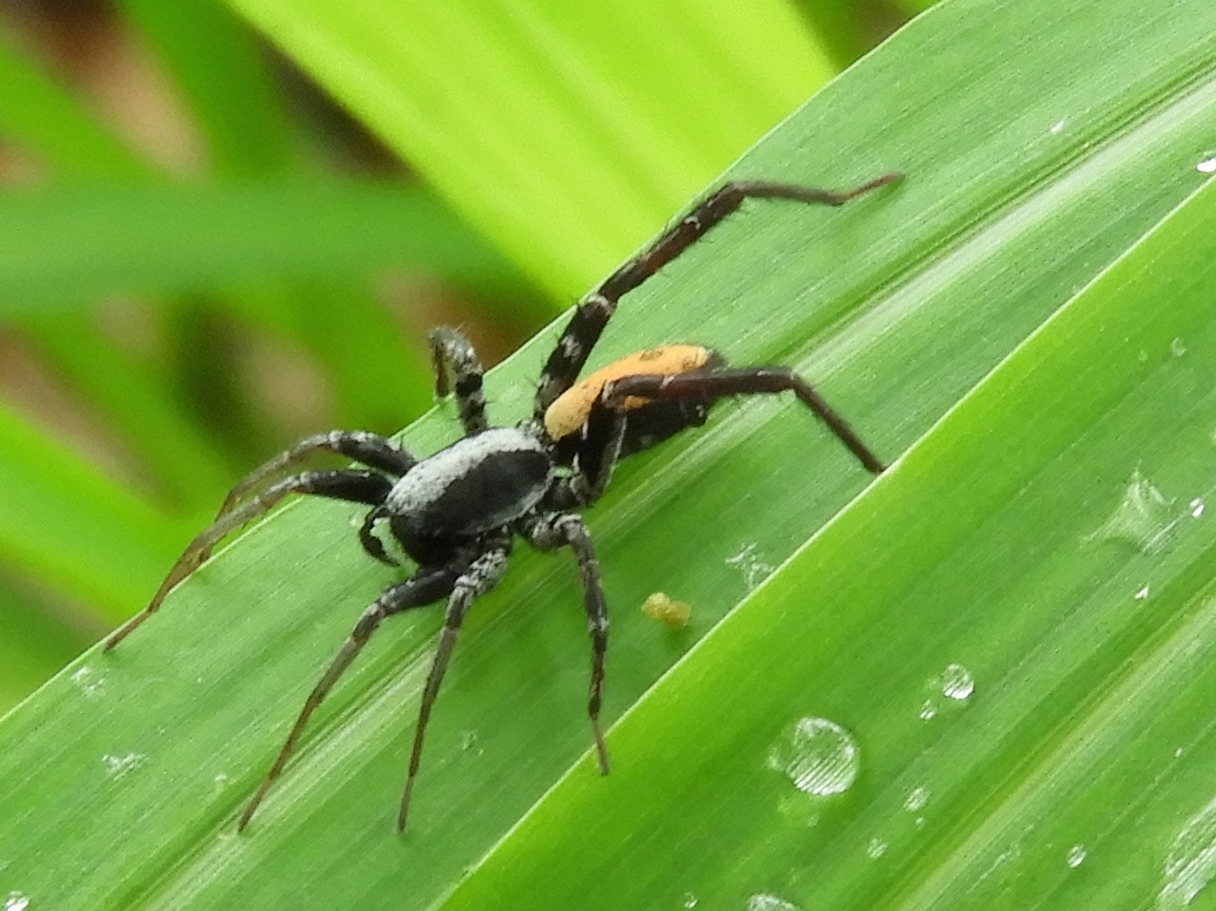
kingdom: Animalia
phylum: Arthropoda
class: Arachnida
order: Araneae
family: Corinnidae
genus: Castianeira
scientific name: Castianeira
